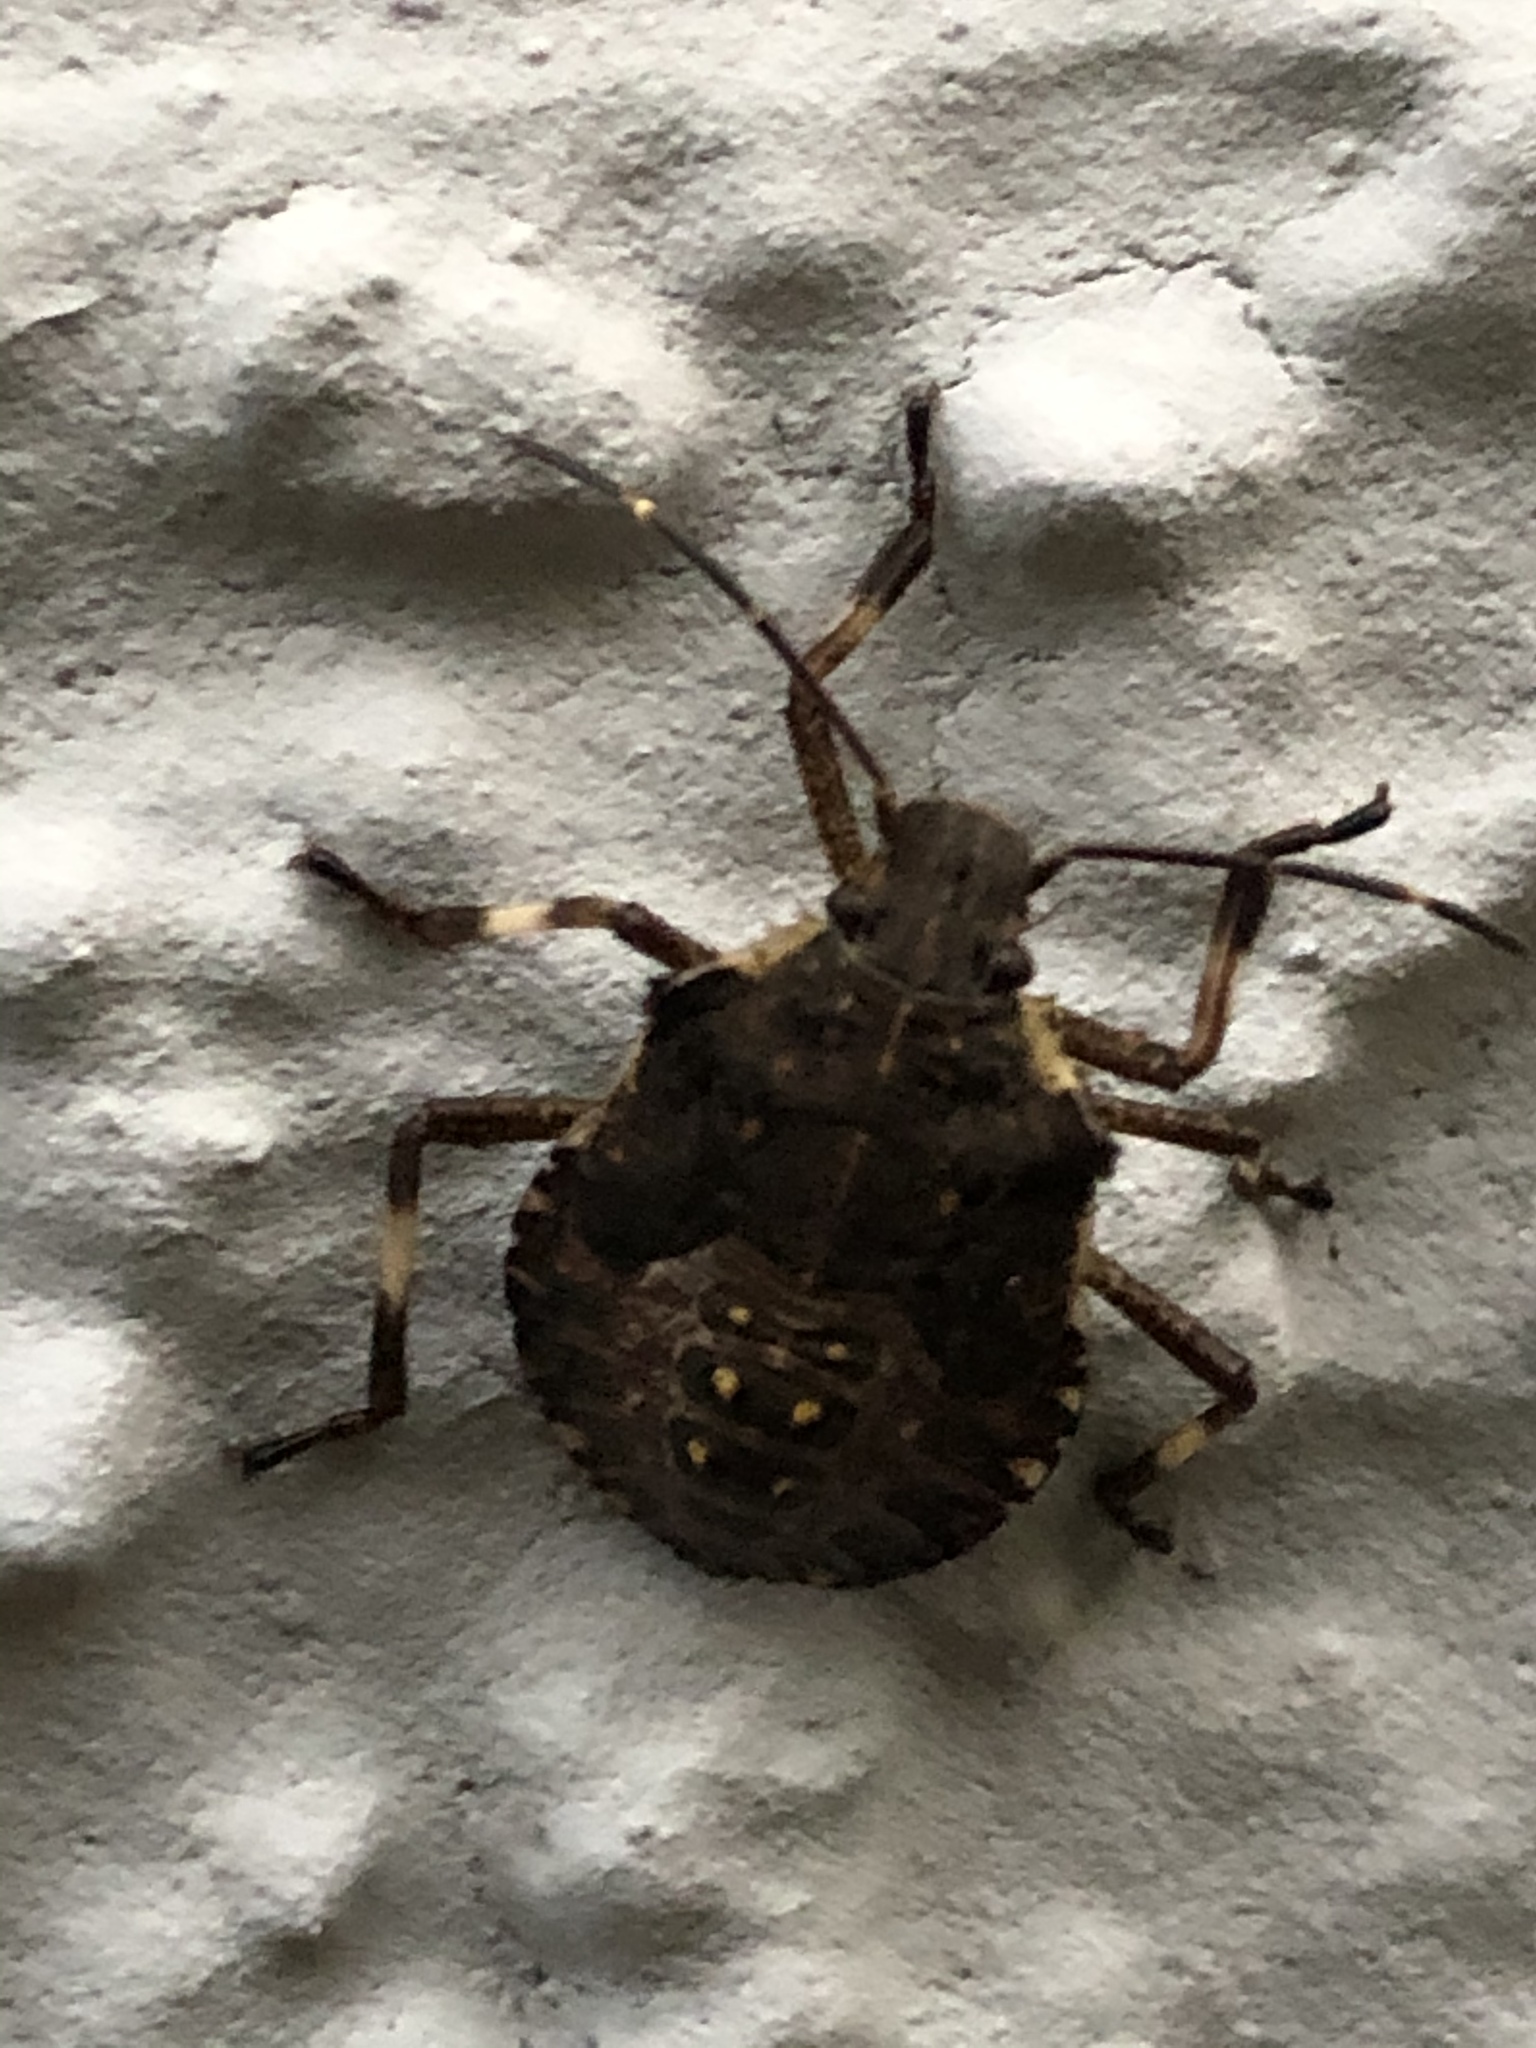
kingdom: Animalia
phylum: Arthropoda
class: Insecta
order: Hemiptera
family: Pentatomidae
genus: Halyomorpha
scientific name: Halyomorpha halys
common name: Brown marmorated stink bug
